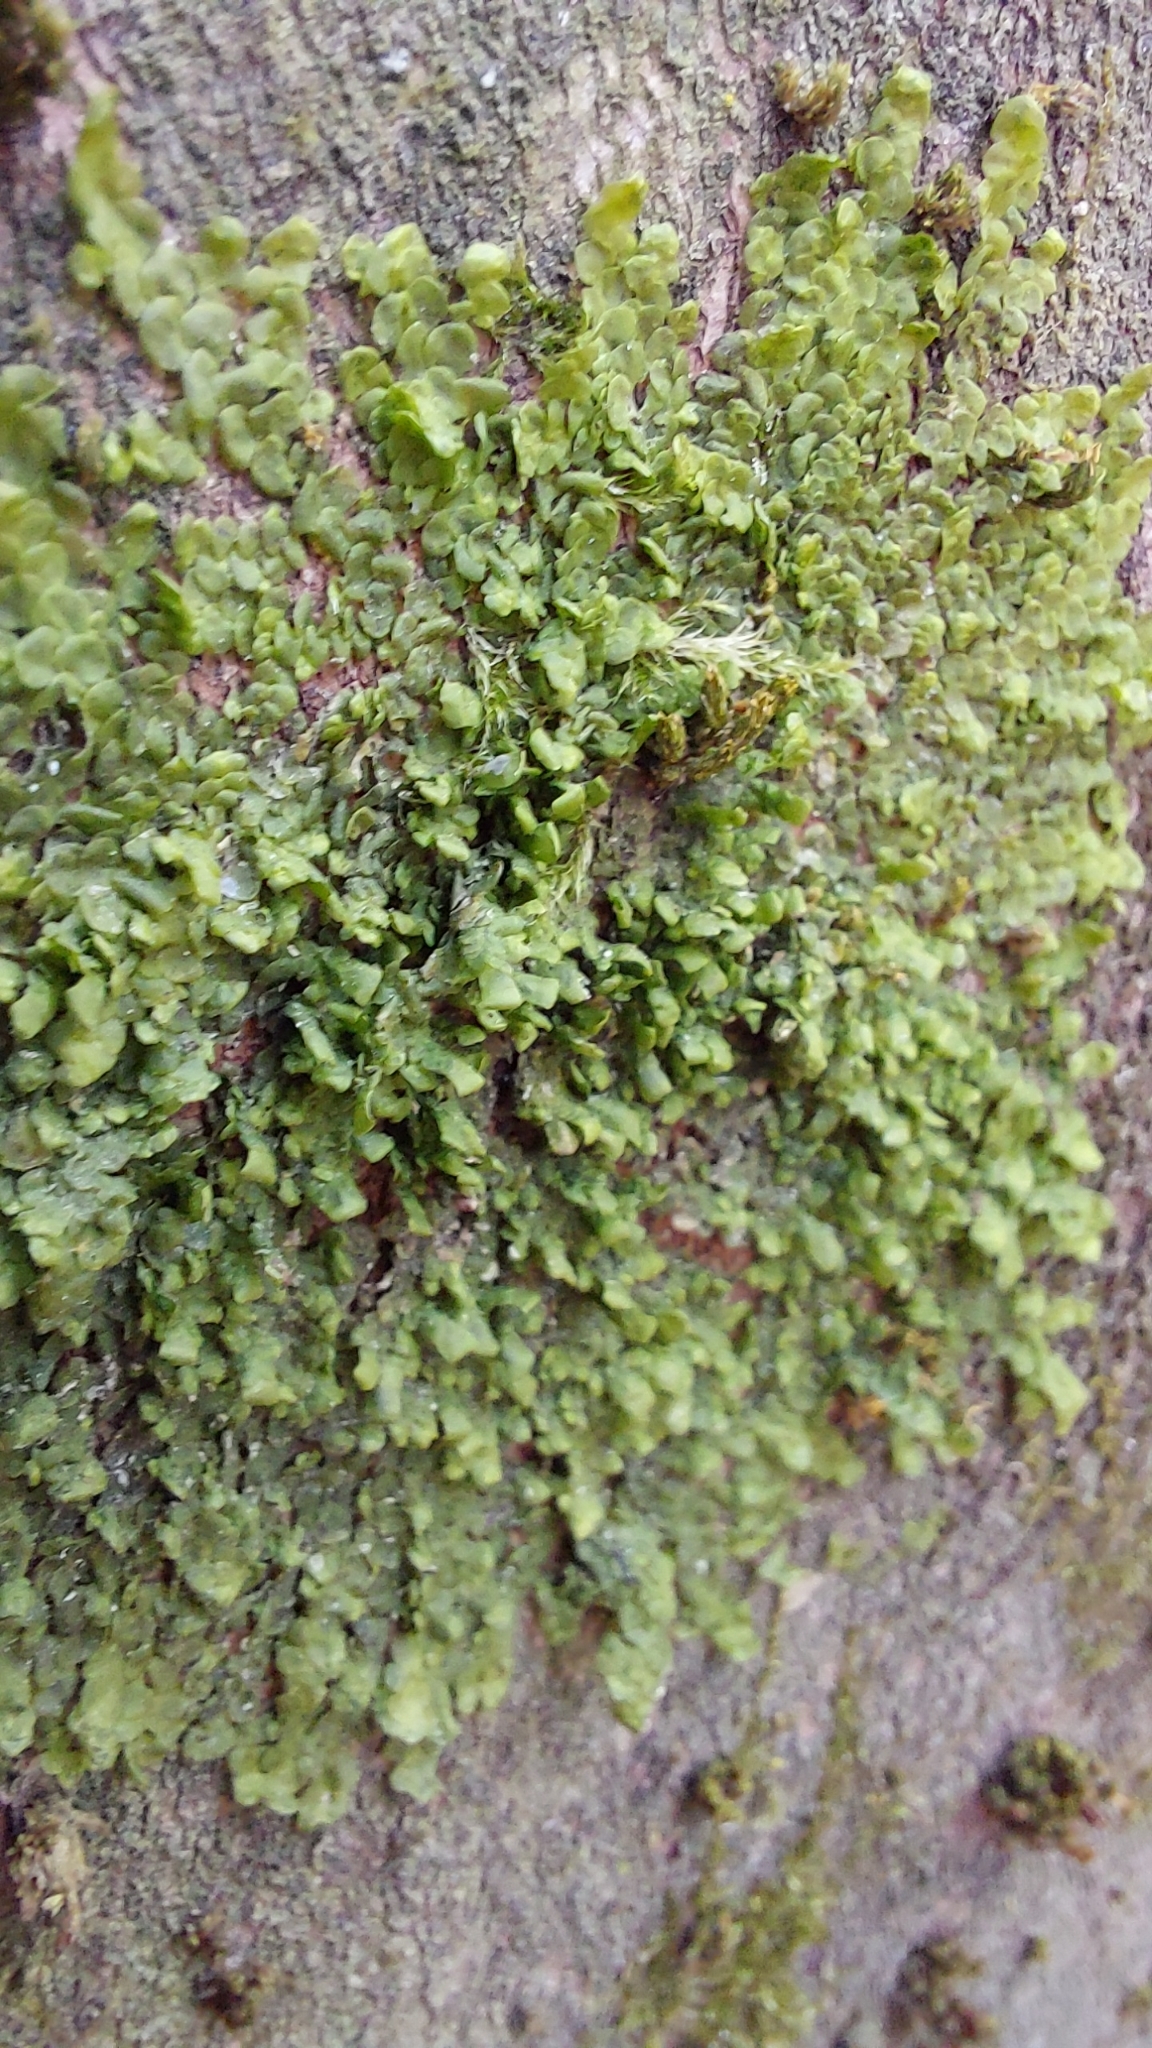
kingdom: Plantae
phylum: Marchantiophyta
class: Jungermanniopsida
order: Porellales
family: Radulaceae
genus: Radula
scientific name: Radula complanata
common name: Flat-leaved scalewort
